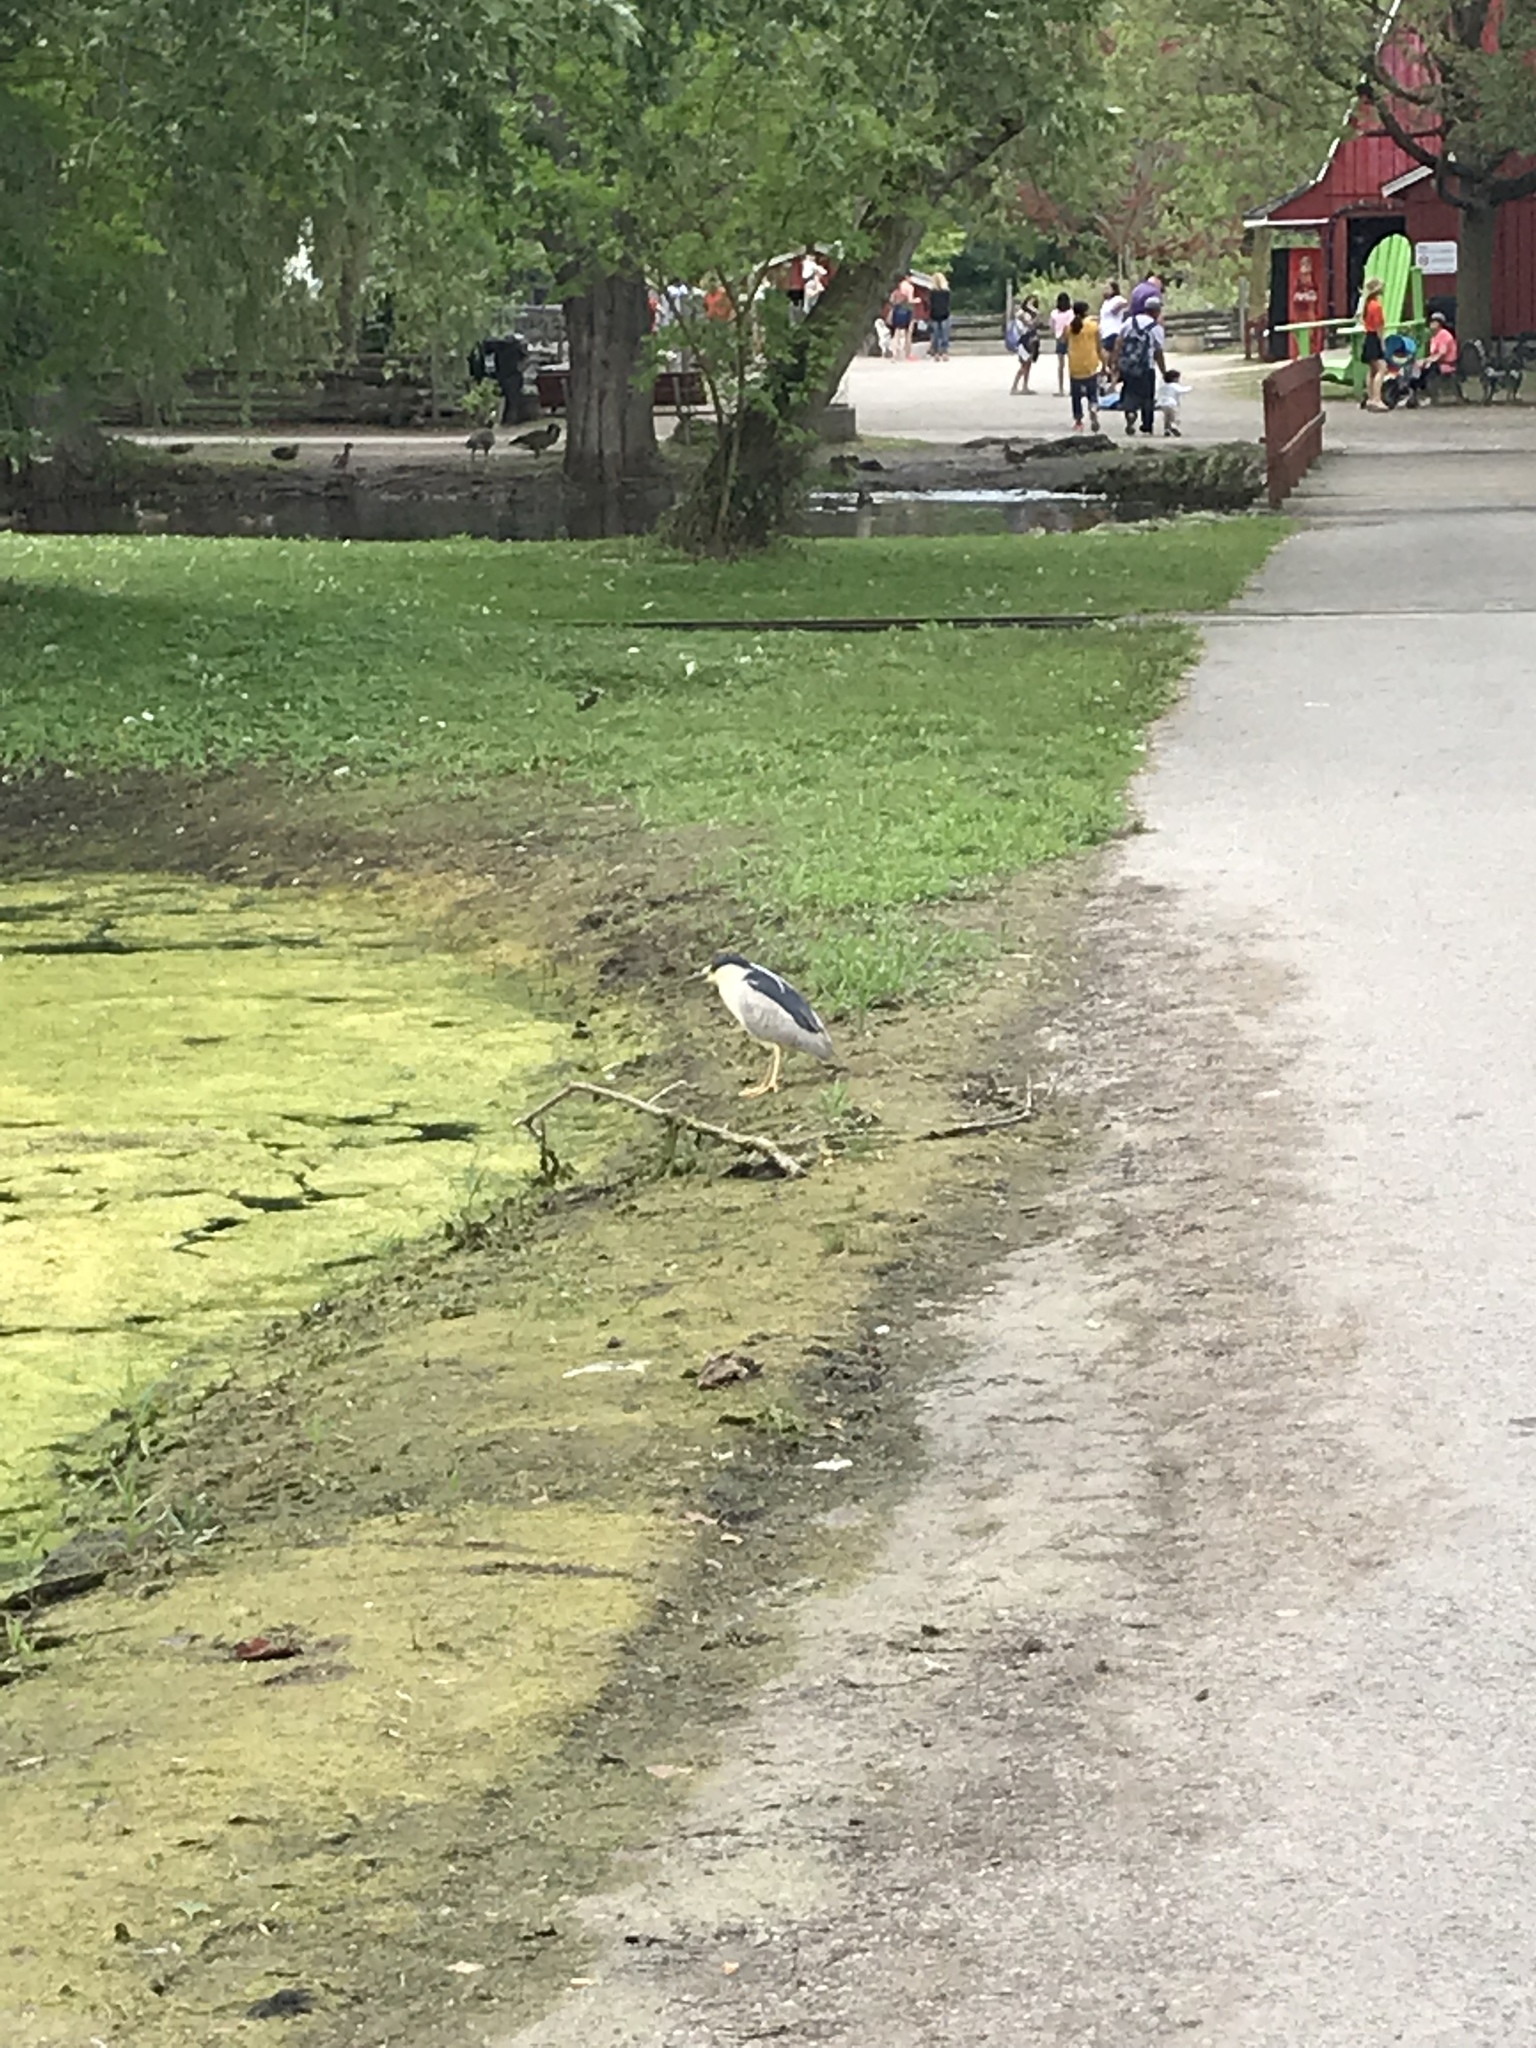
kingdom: Animalia
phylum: Chordata
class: Aves
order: Pelecaniformes
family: Ardeidae
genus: Nycticorax
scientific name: Nycticorax nycticorax
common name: Black-crowned night heron
